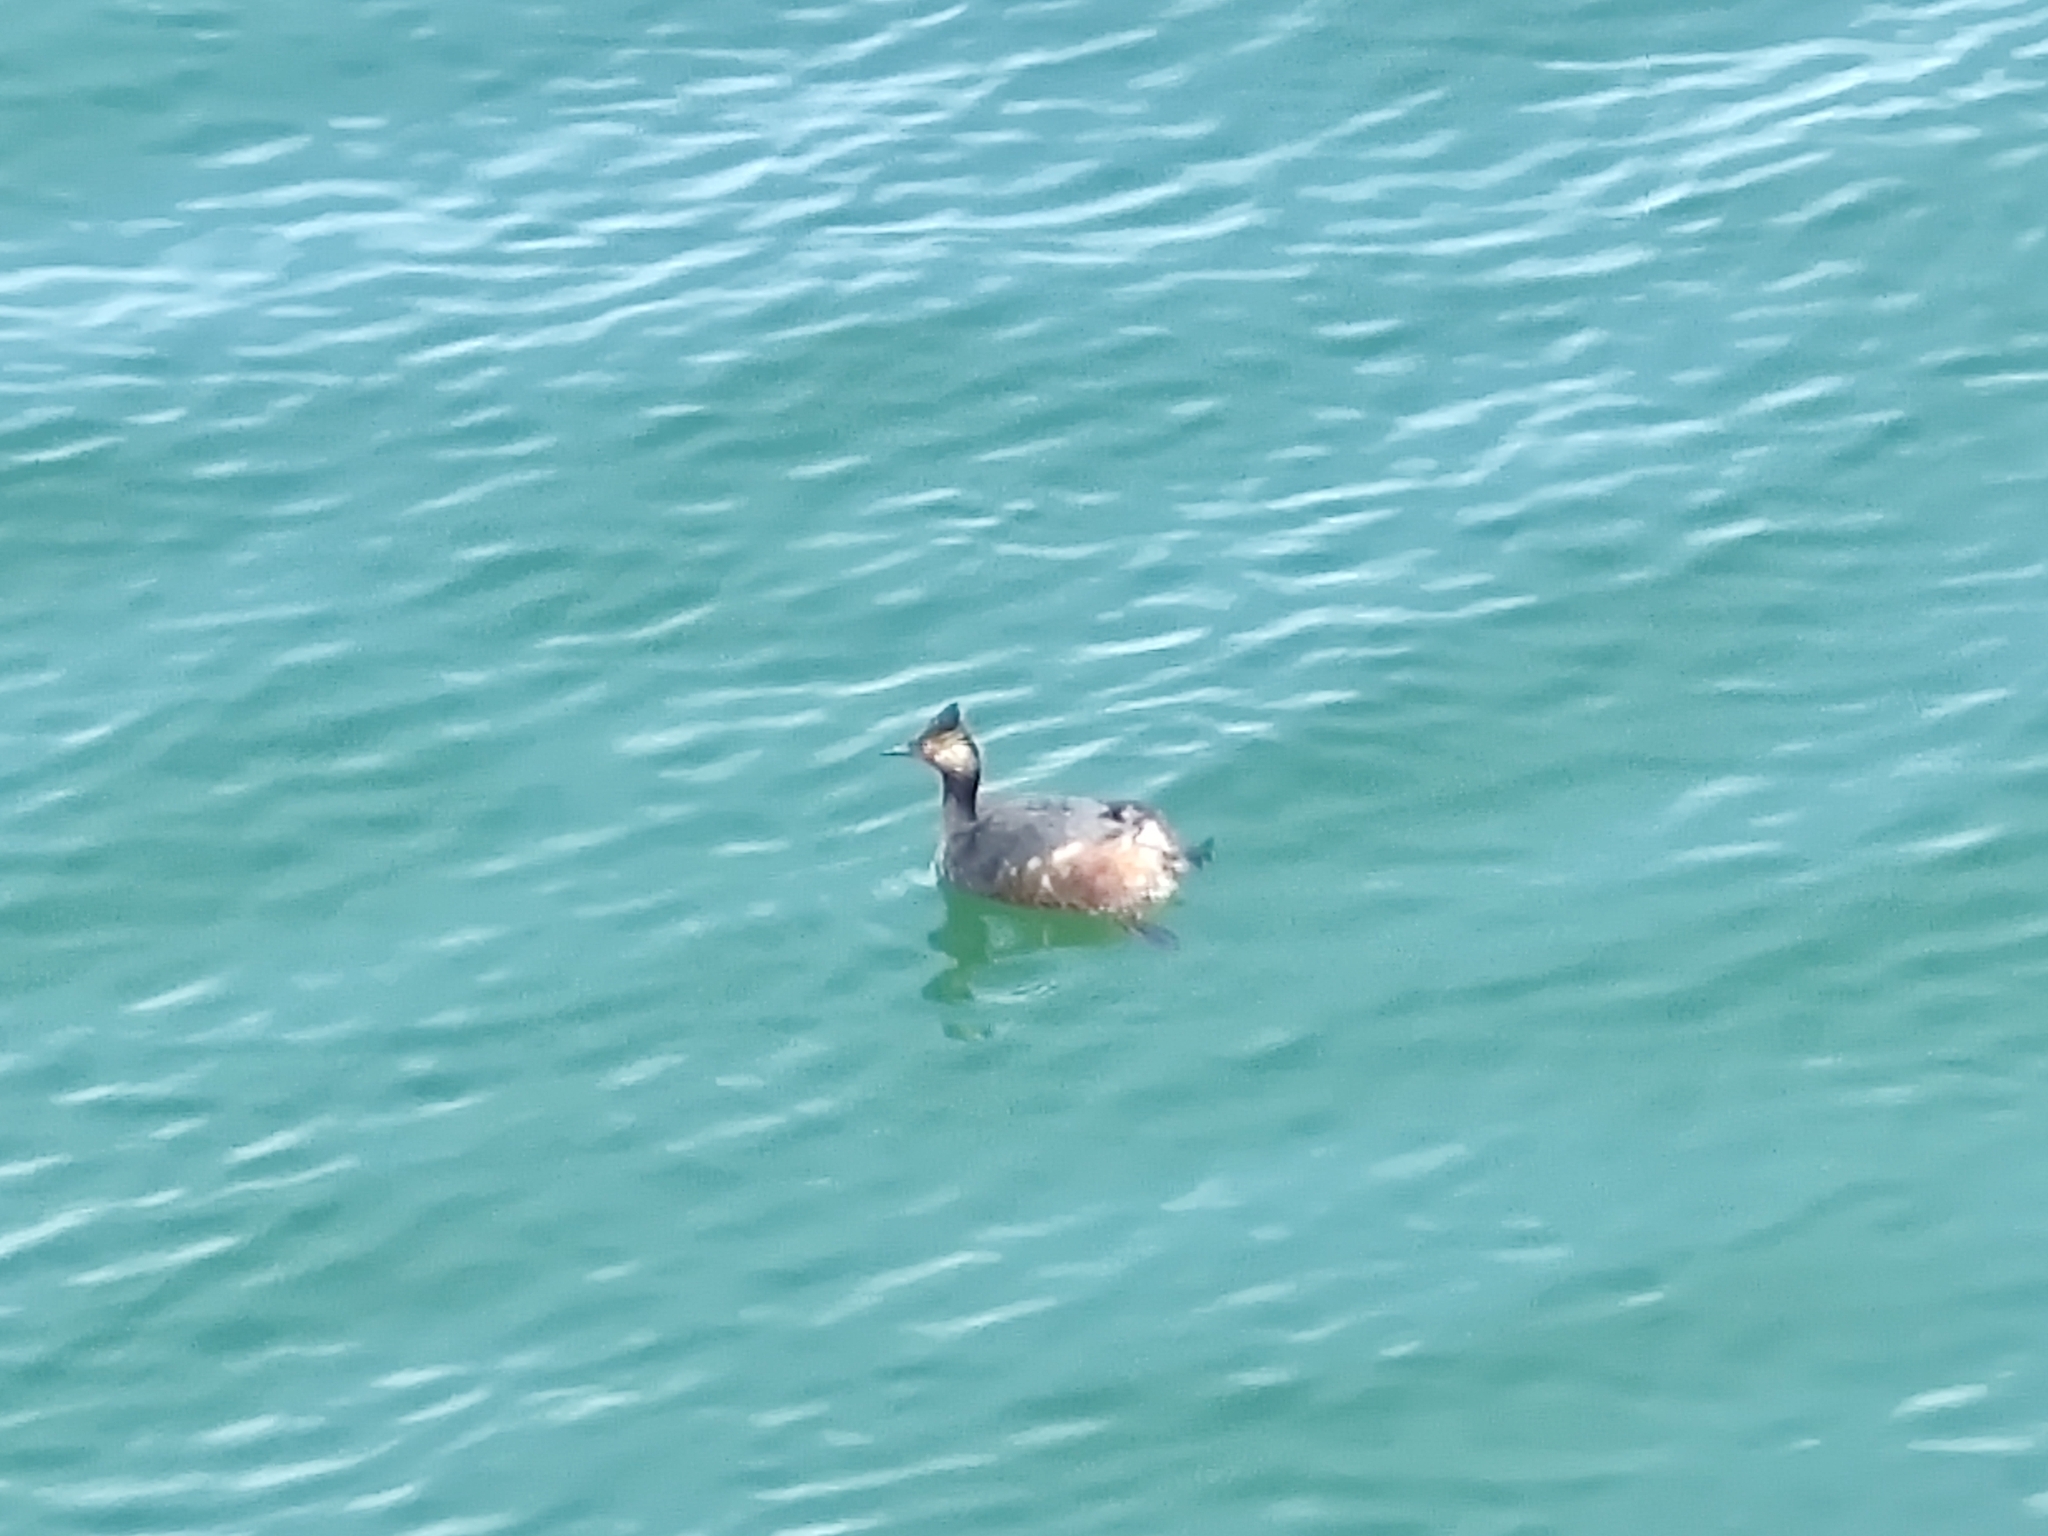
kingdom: Animalia
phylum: Chordata
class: Aves
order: Podicipediformes
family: Podicipedidae
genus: Podiceps
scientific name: Podiceps nigricollis
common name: Black-necked grebe
